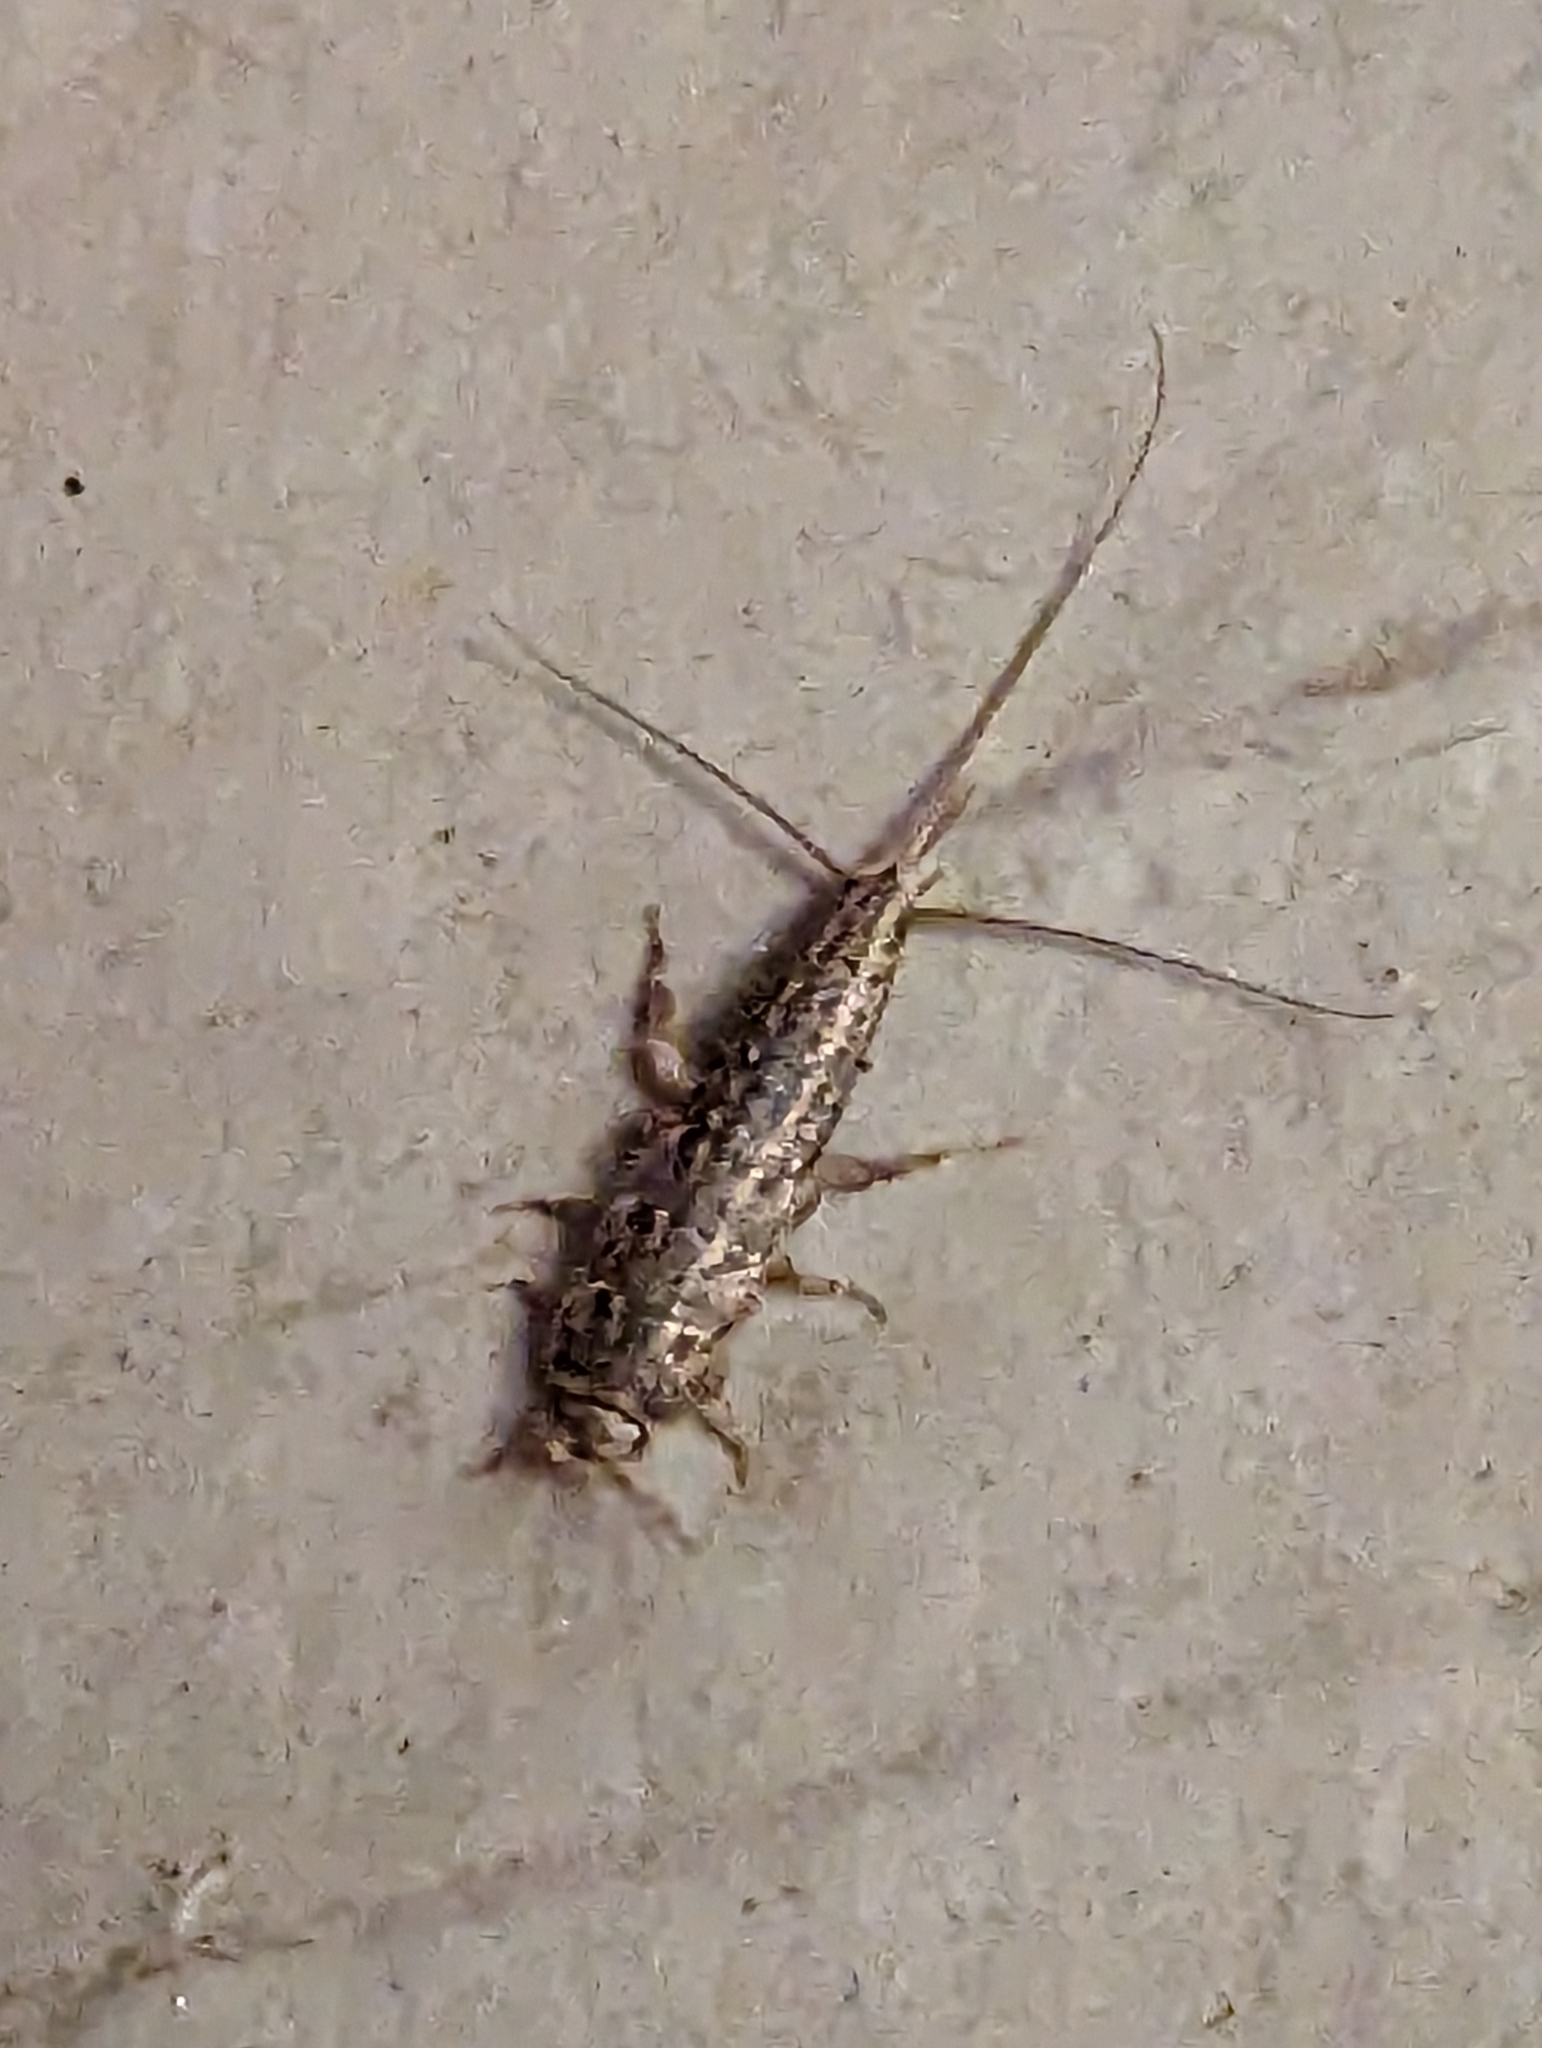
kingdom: Animalia
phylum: Arthropoda
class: Insecta
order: Zygentoma
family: Lepismatidae
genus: Ctenolepisma
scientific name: Ctenolepisma lineata
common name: Four-lined silverfish
